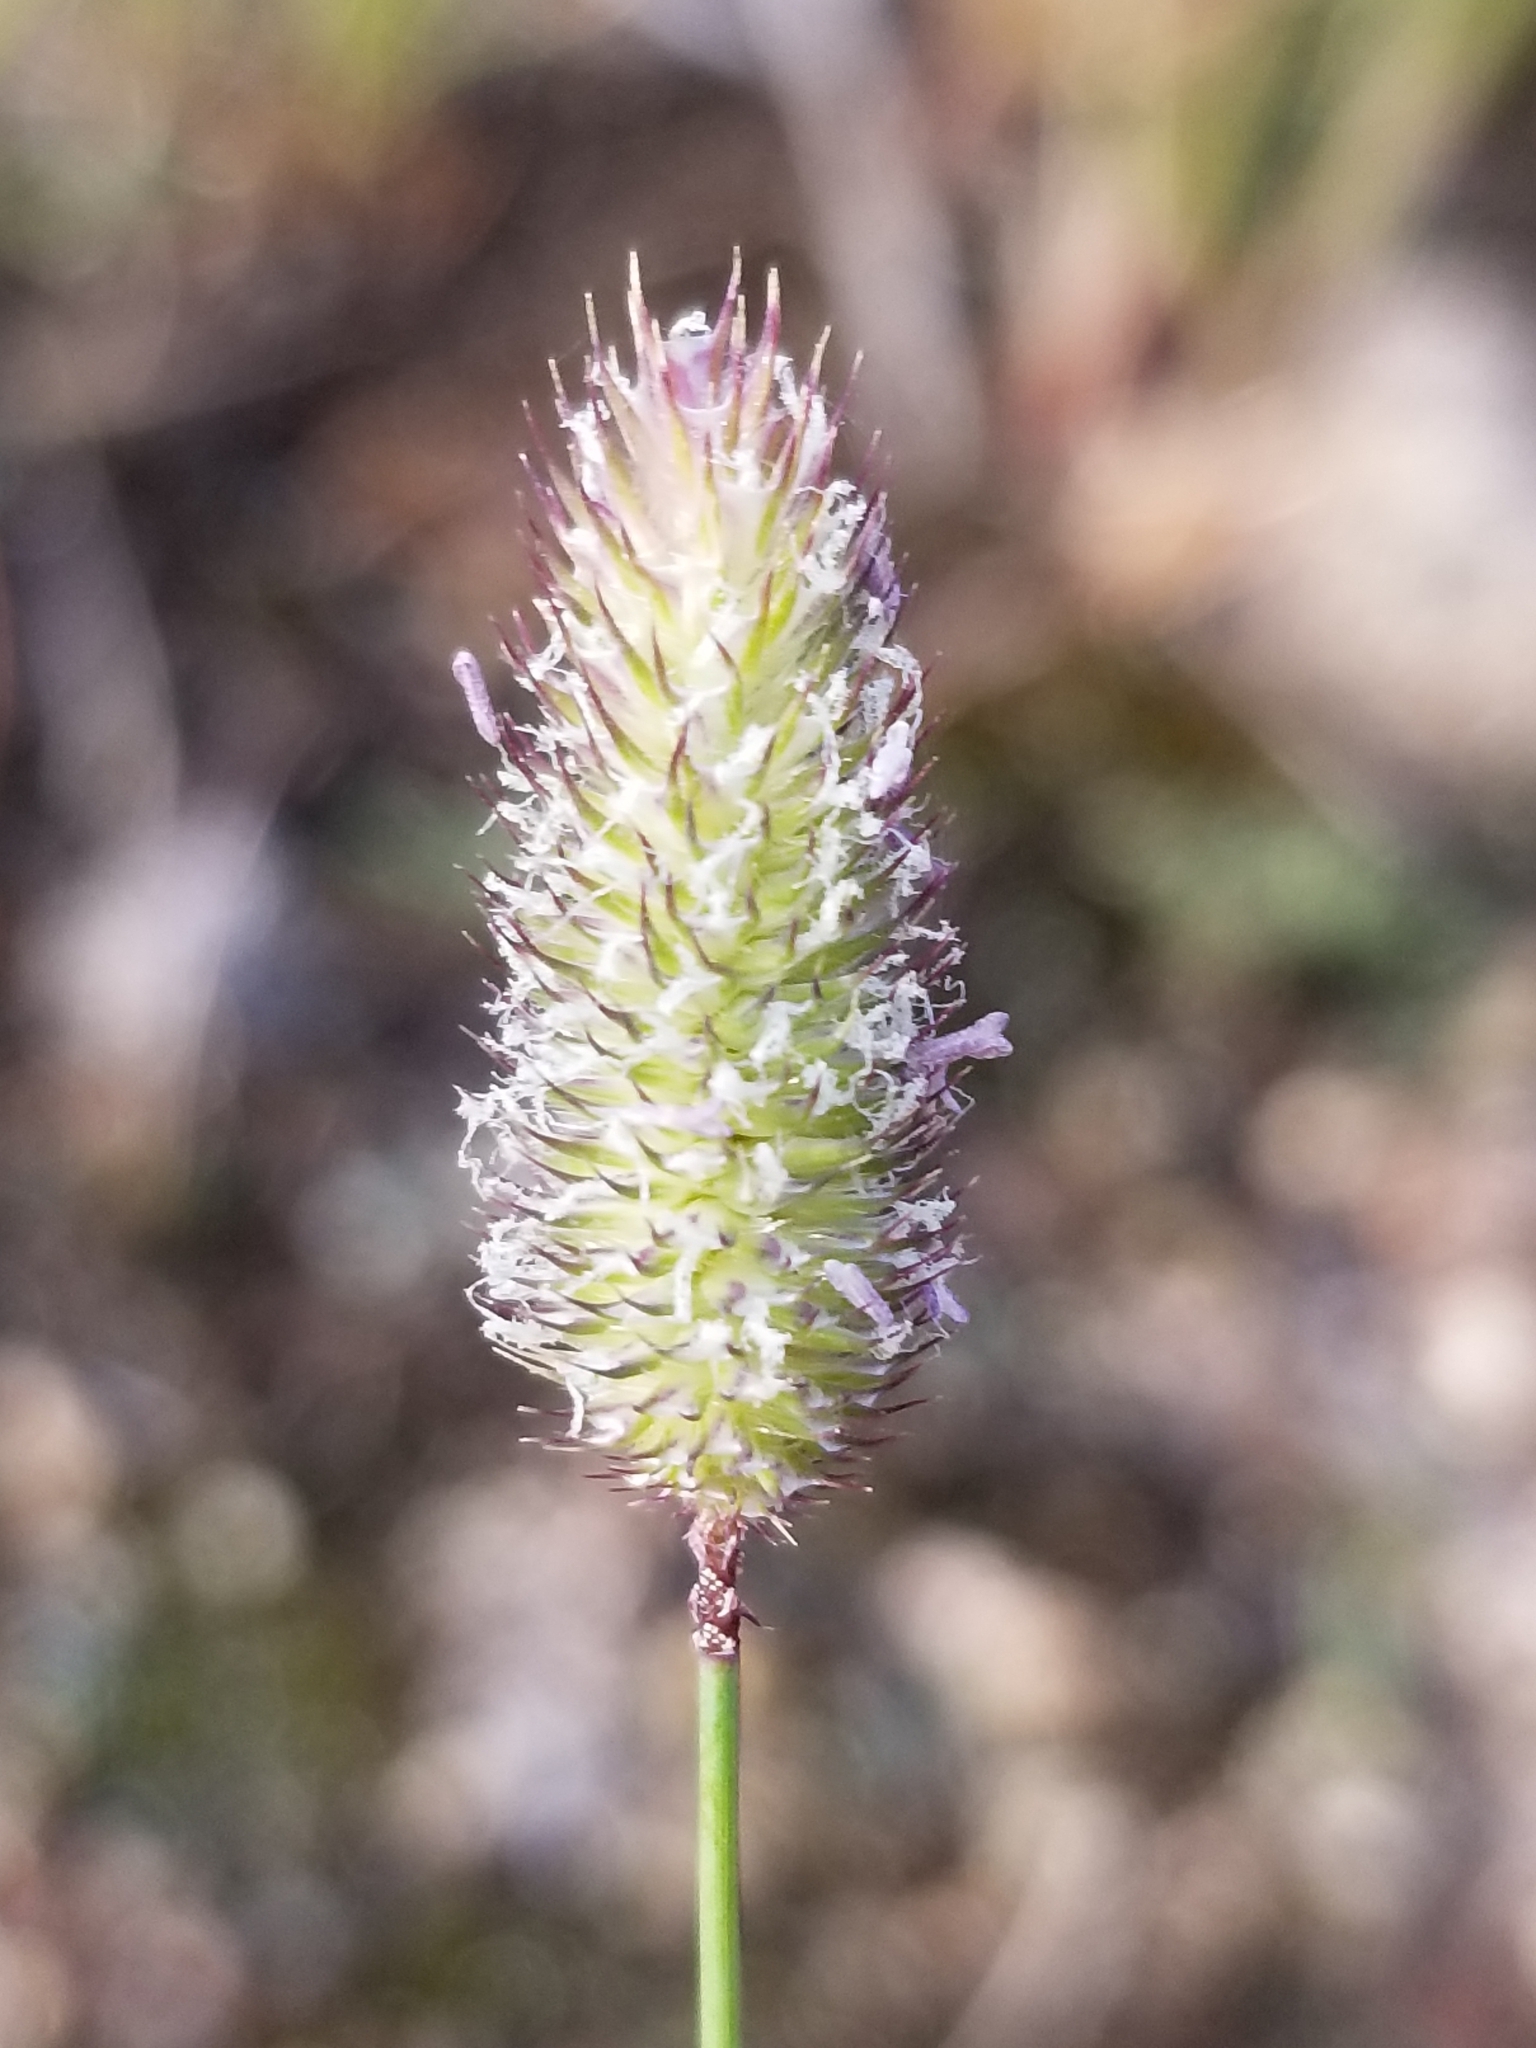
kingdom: Plantae
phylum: Tracheophyta
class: Liliopsida
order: Poales
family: Poaceae
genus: Phleum
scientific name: Phleum alpinum
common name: Alpine cat's-tail
